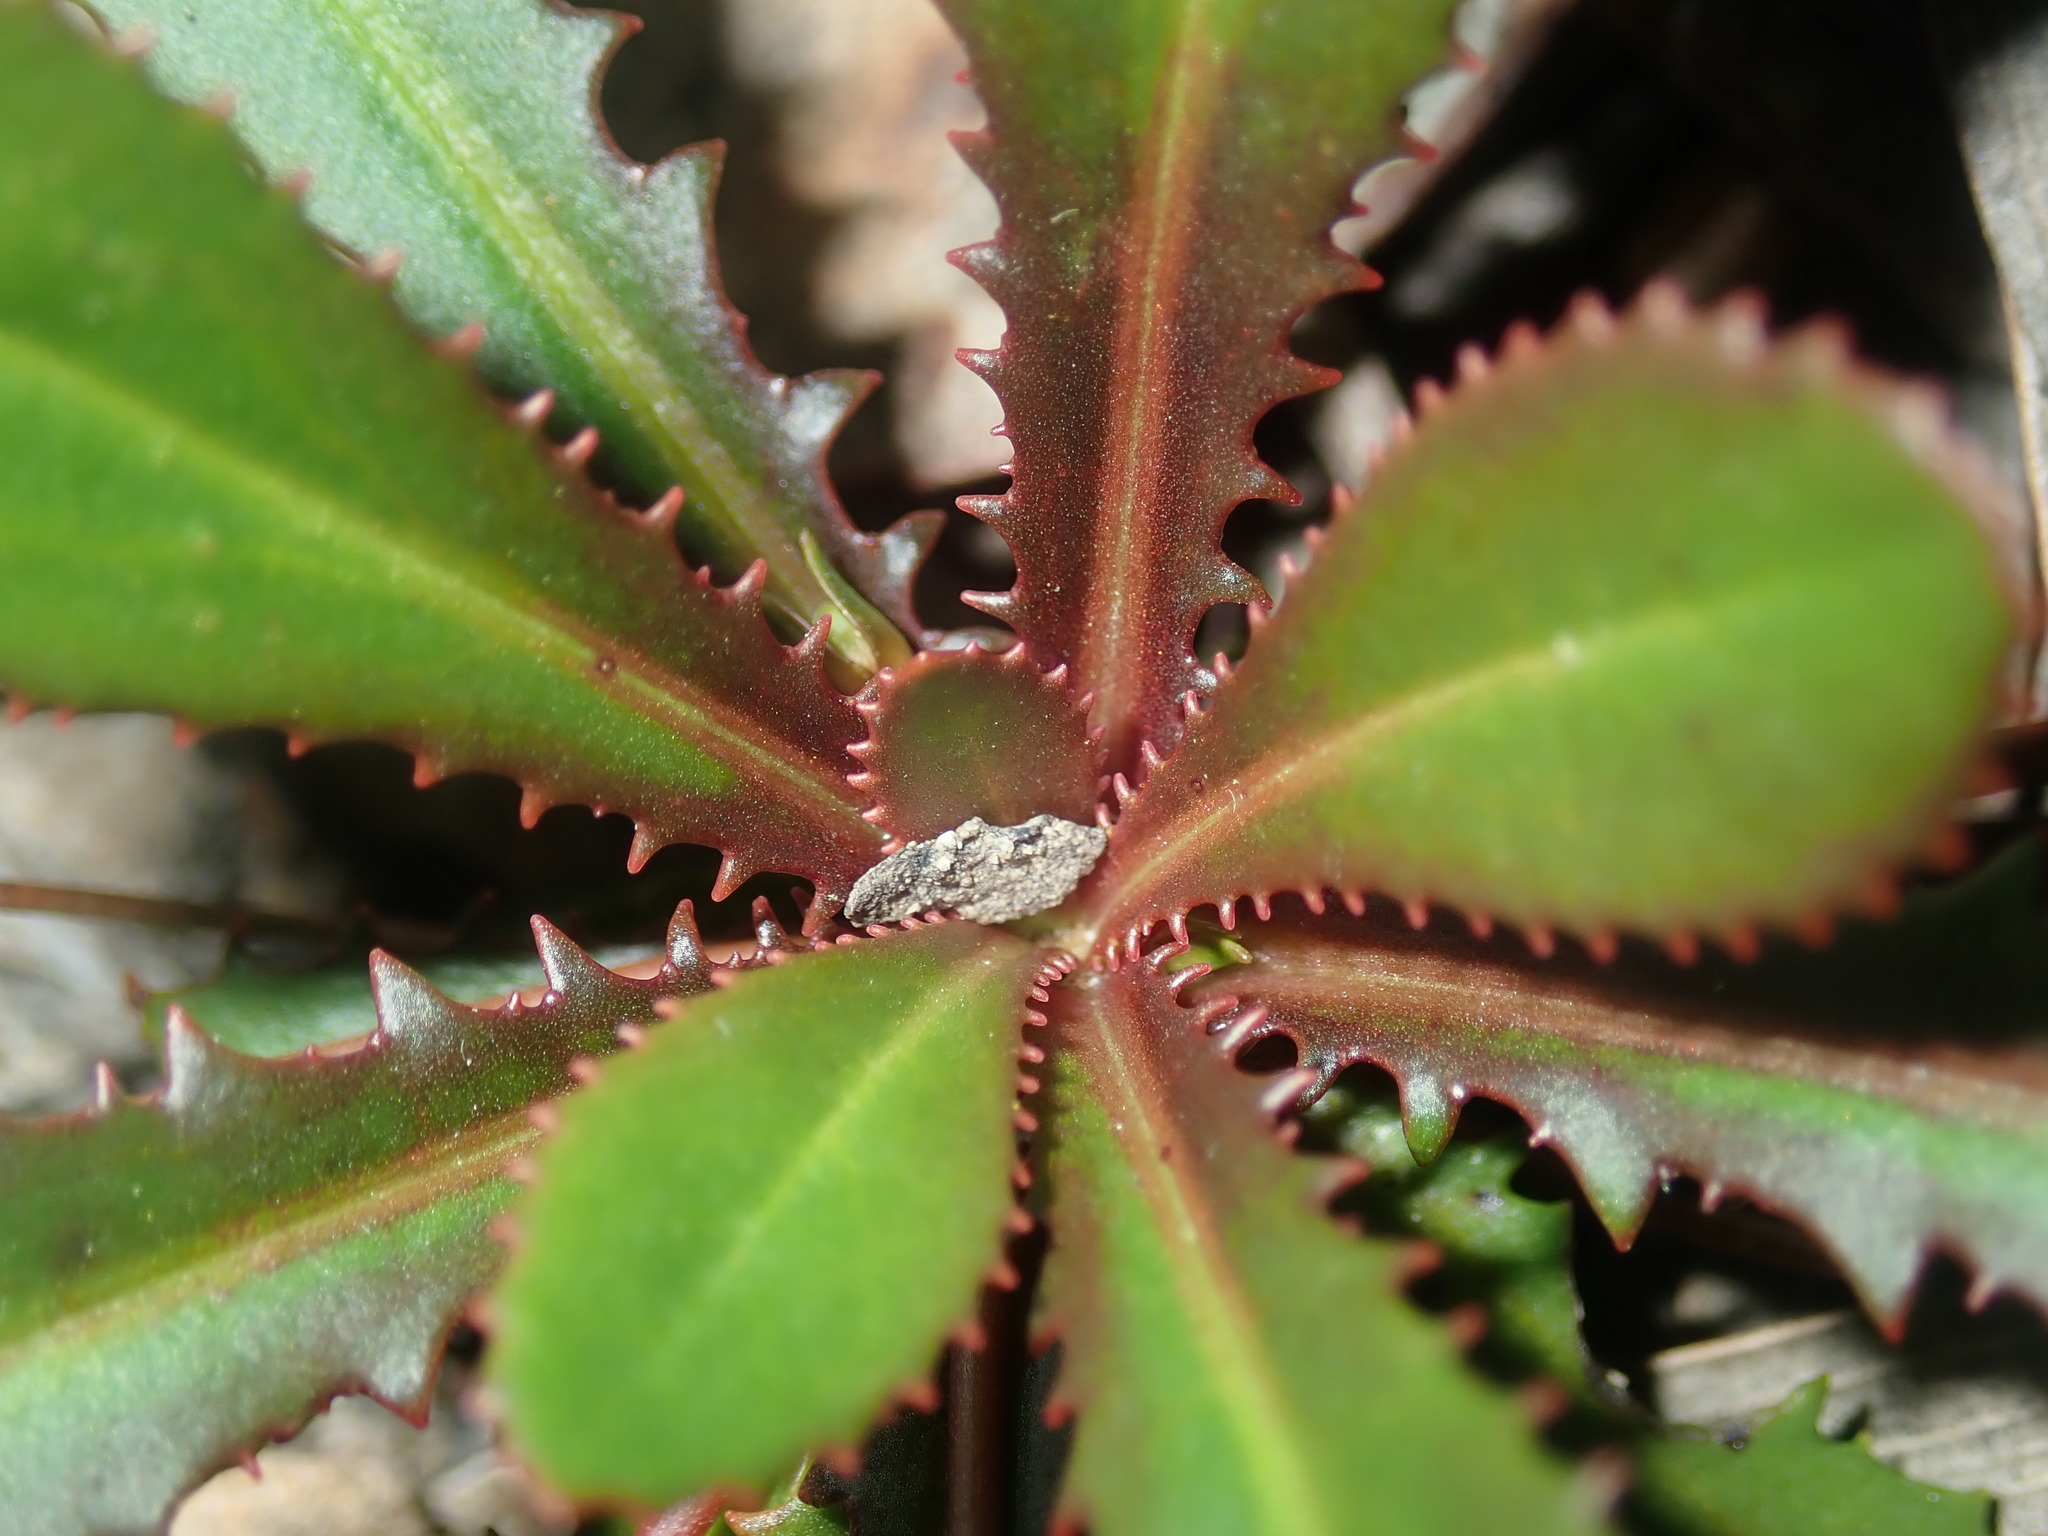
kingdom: Plantae
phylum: Tracheophyta
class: Magnoliopsida
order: Asterales
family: Goodeniaceae
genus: Goodenia
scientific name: Goodenia caroliniana
